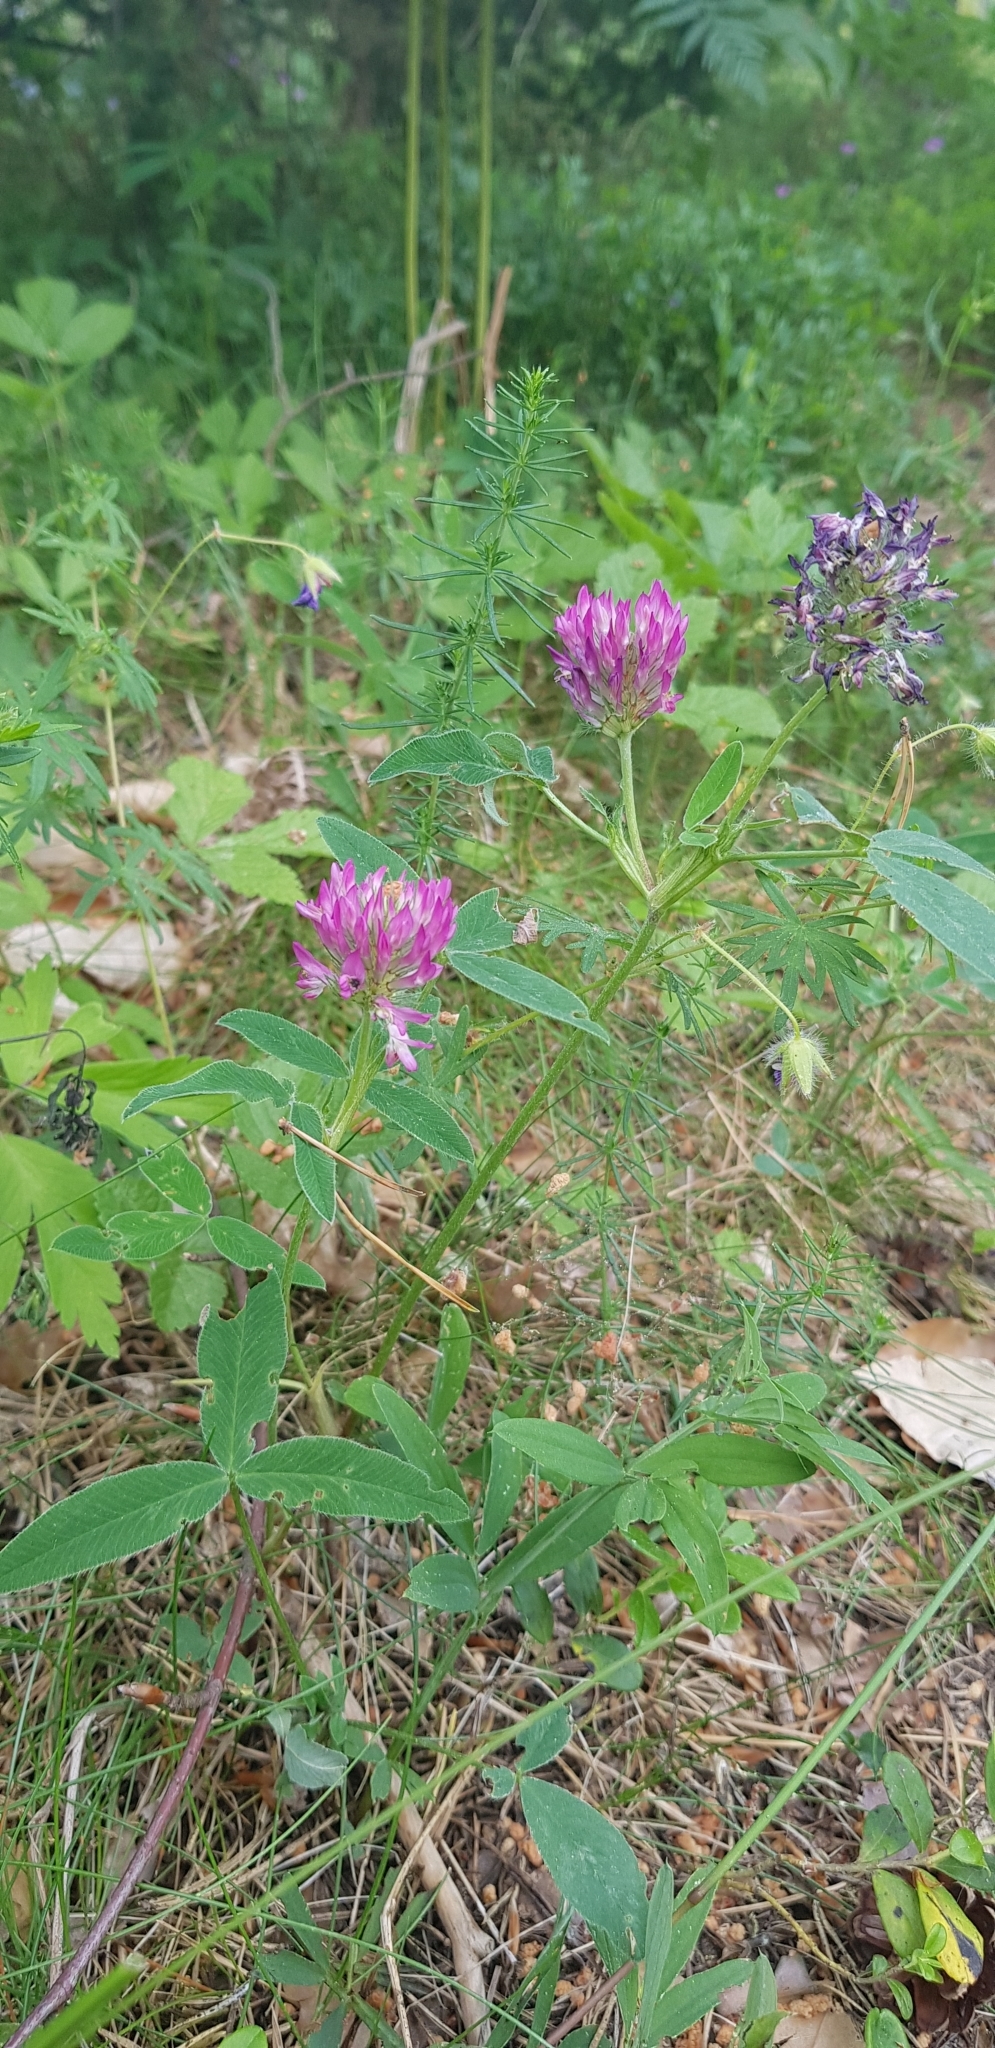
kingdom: Plantae
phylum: Tracheophyta
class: Magnoliopsida
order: Fabales
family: Fabaceae
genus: Trifolium
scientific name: Trifolium medium
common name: Zigzag clover
